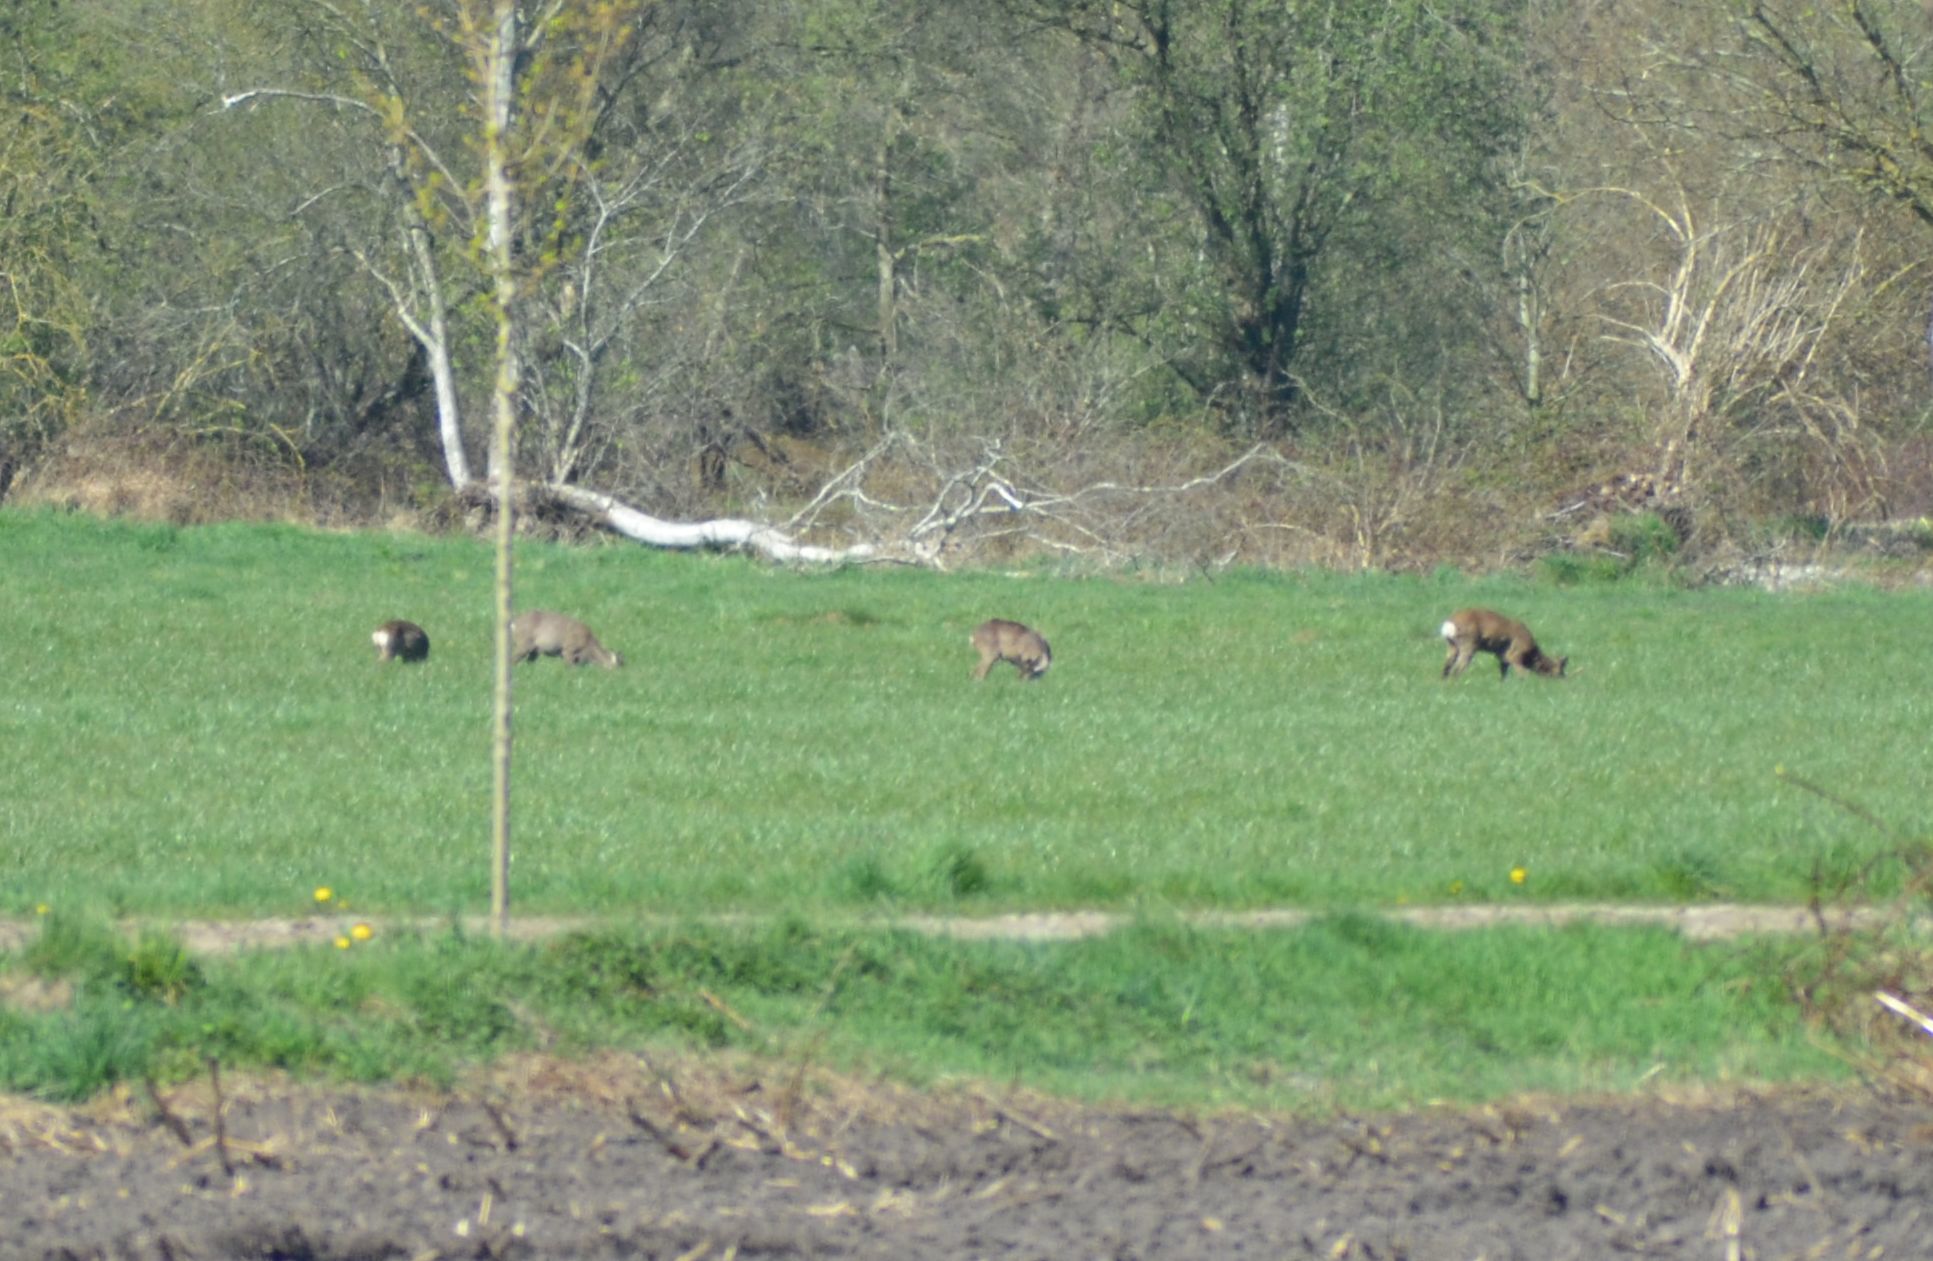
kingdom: Animalia
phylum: Chordata
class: Mammalia
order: Artiodactyla
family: Cervidae
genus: Capreolus
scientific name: Capreolus capreolus
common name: Western roe deer
